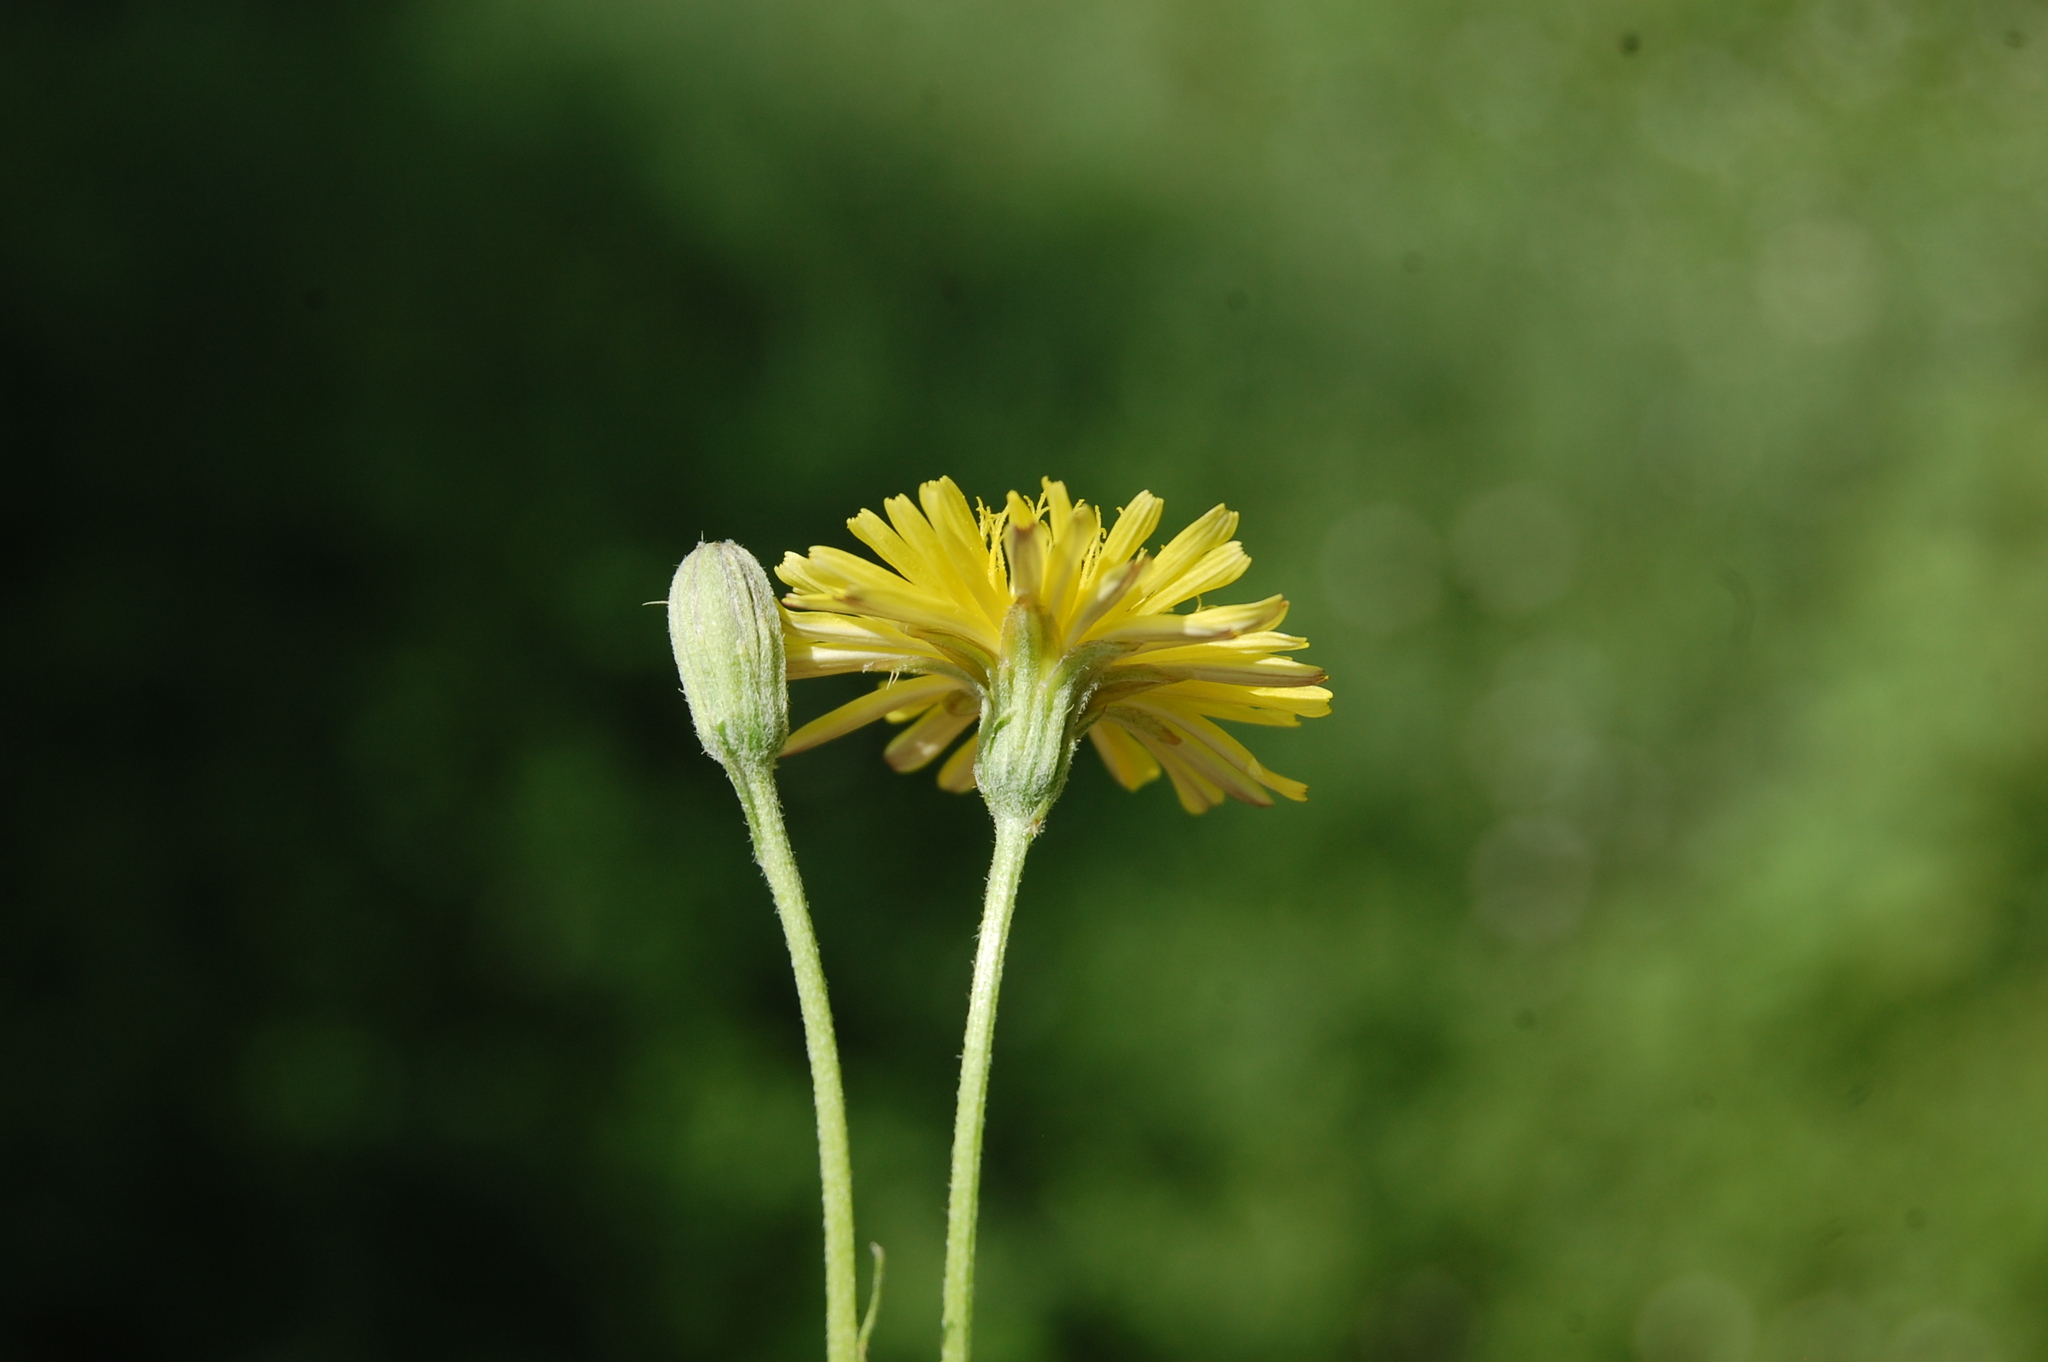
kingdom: Plantae
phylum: Tracheophyta
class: Magnoliopsida
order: Asterales
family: Asteraceae
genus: Crepis
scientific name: Crepis bursifolia
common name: Italian hawksbeard
